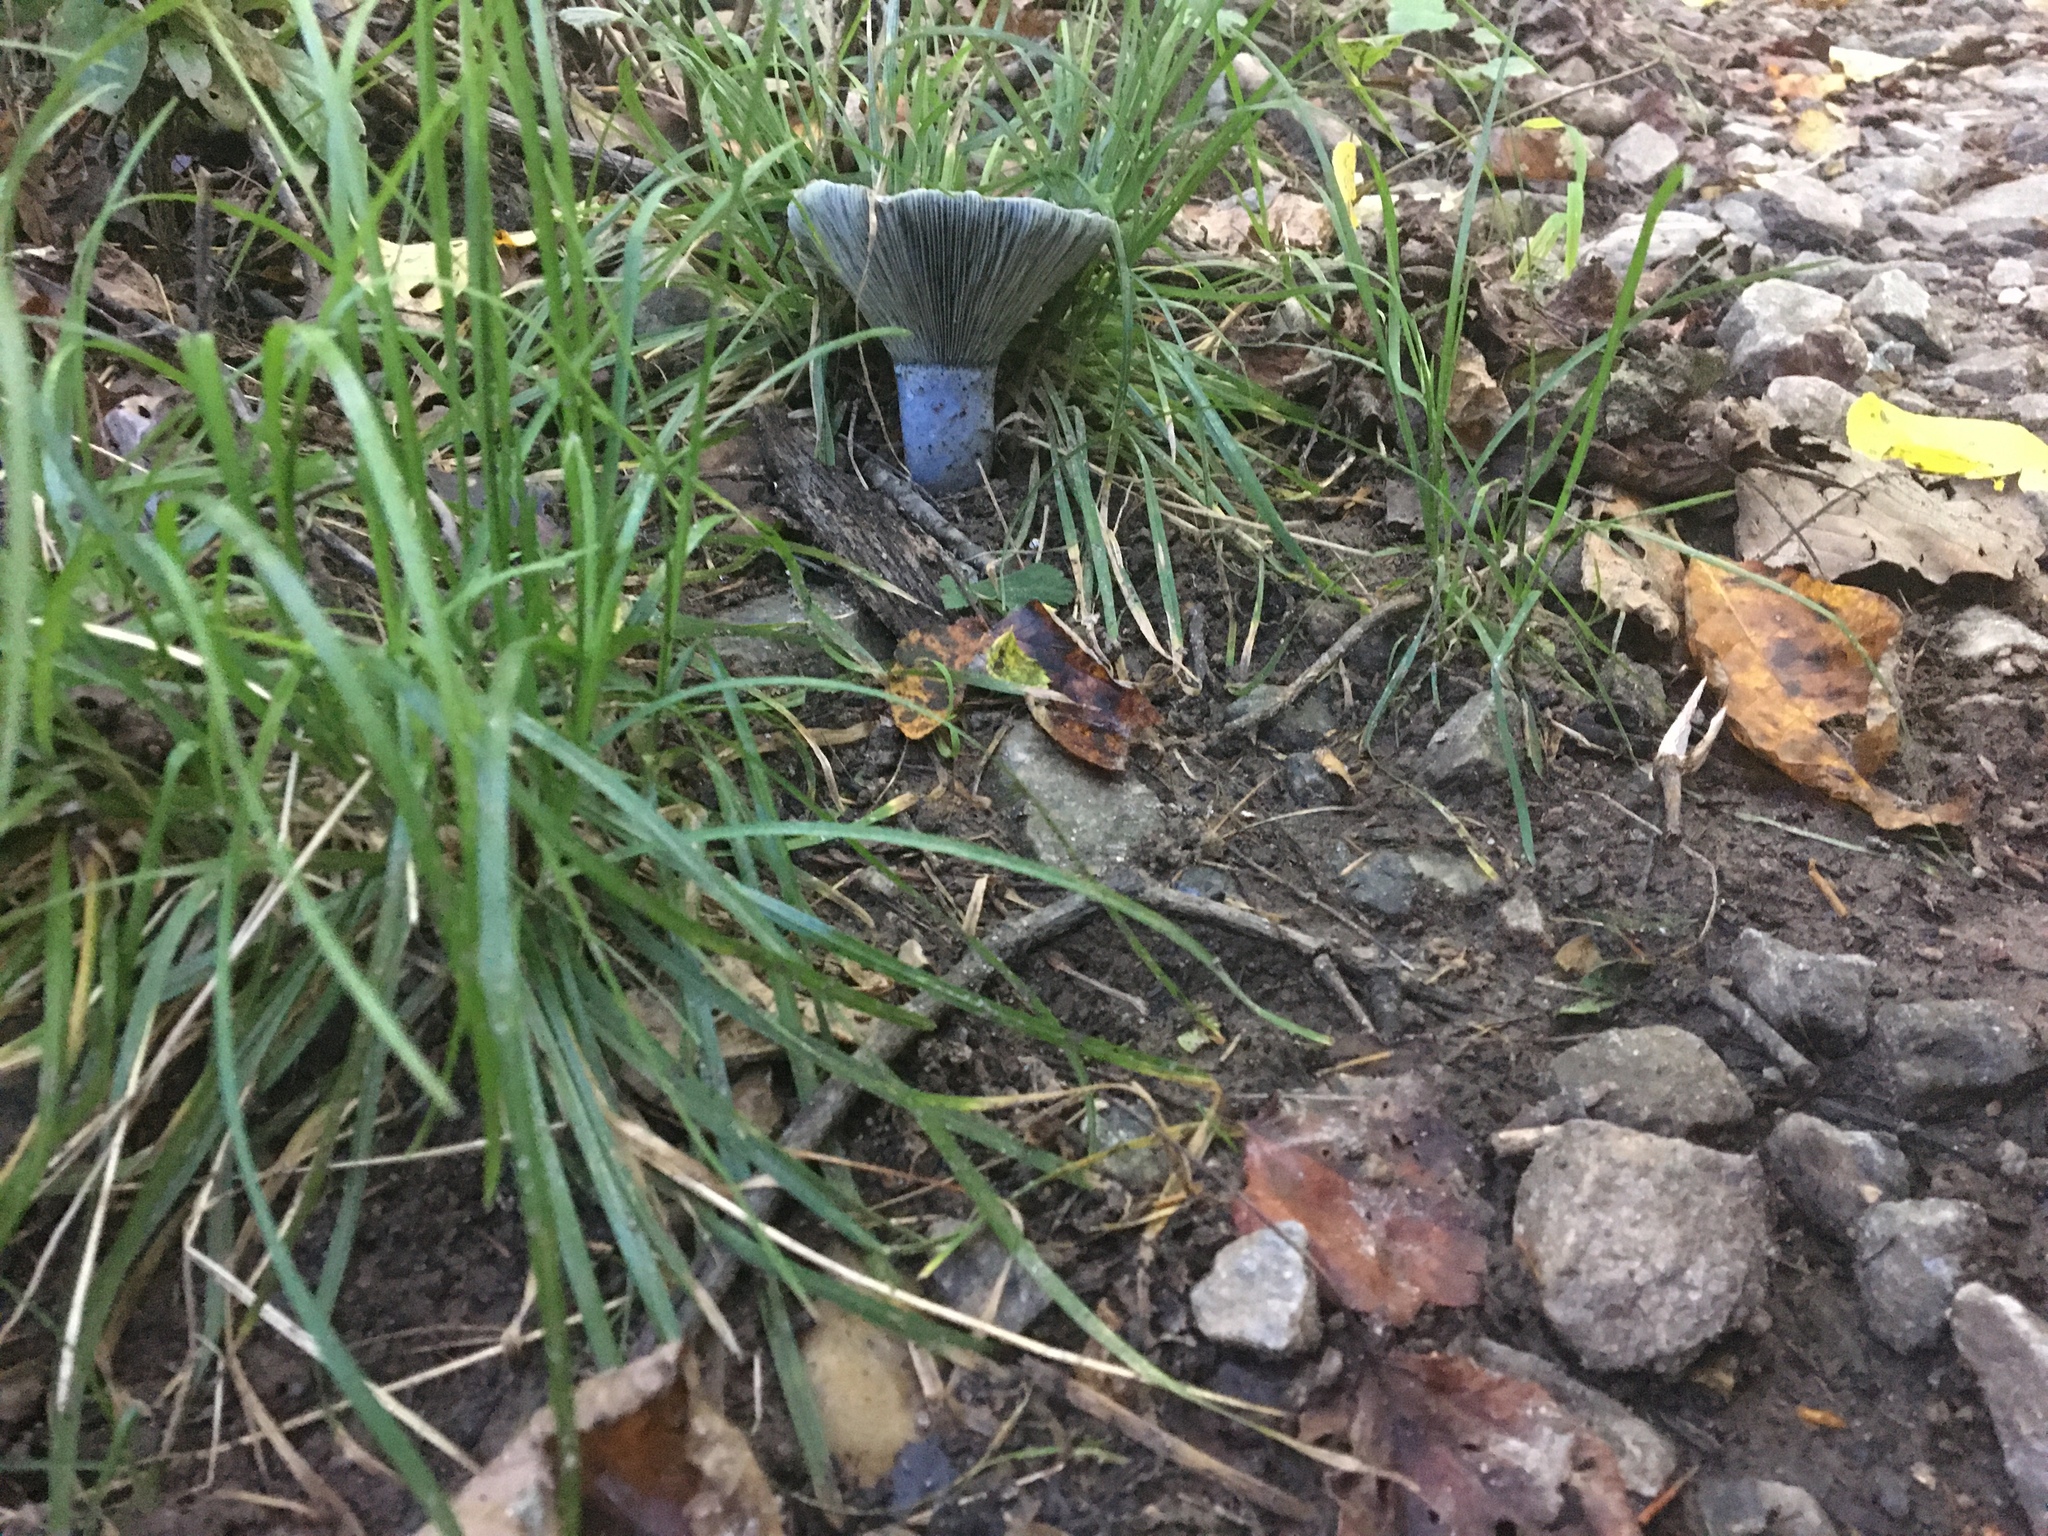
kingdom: Fungi
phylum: Basidiomycota
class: Agaricomycetes
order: Russulales
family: Russulaceae
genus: Lactarius
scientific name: Lactarius indigo
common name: Indigo milk cap
